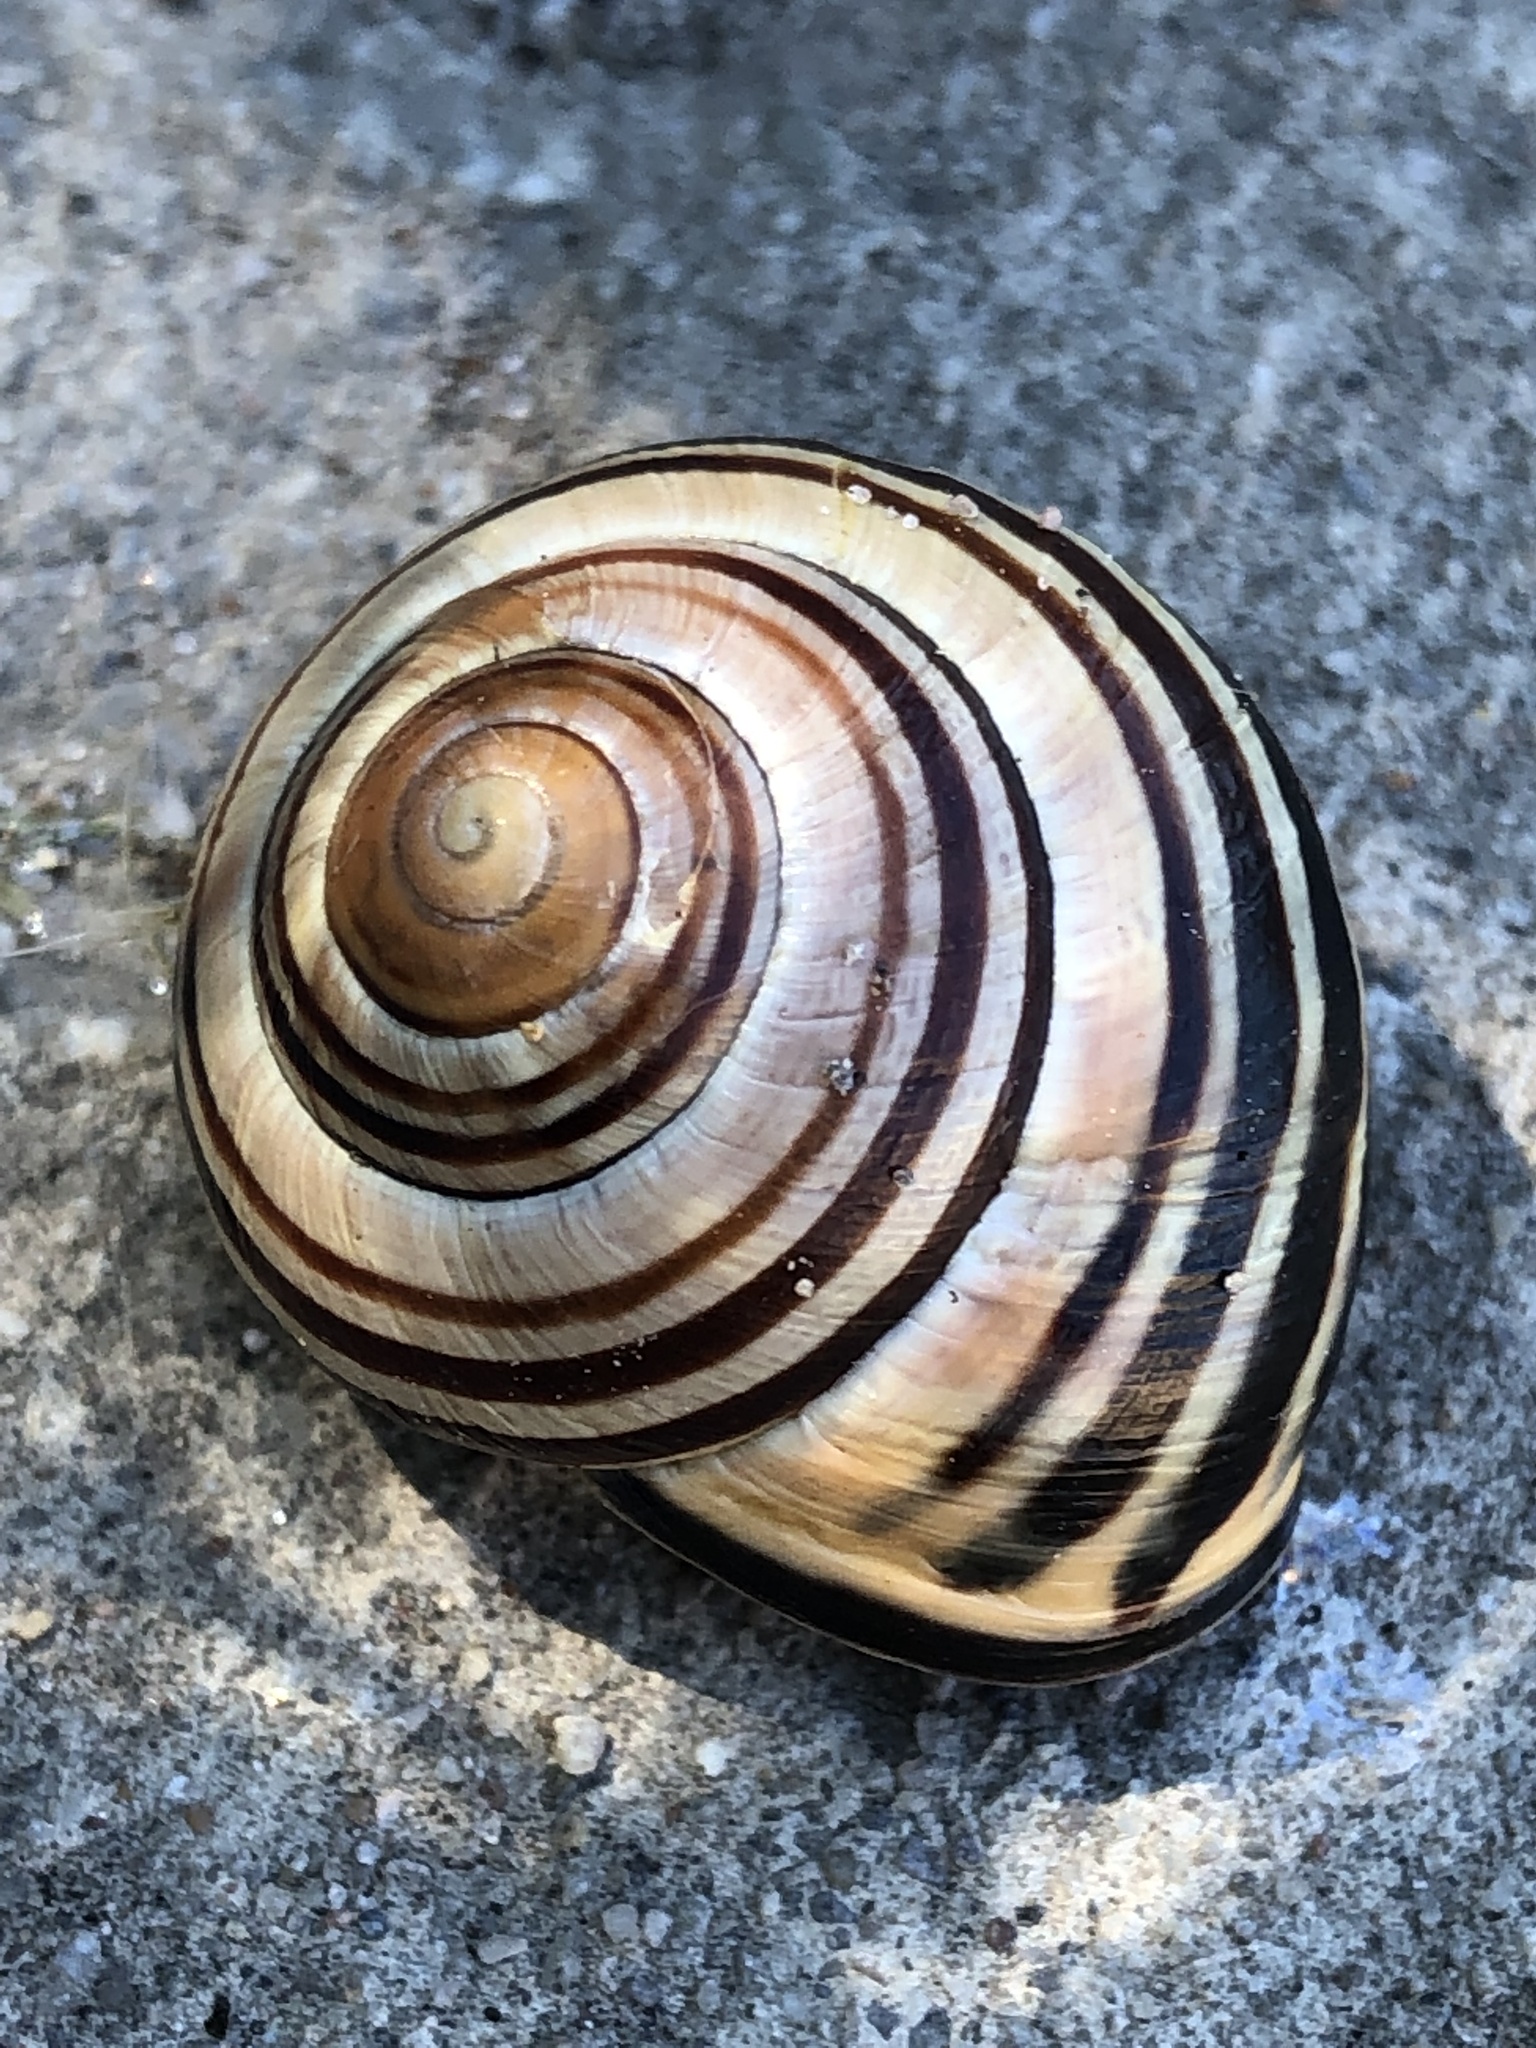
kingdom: Animalia
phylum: Mollusca
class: Gastropoda
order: Stylommatophora
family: Helicidae
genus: Cepaea
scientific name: Cepaea nemoralis
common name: Grovesnail
